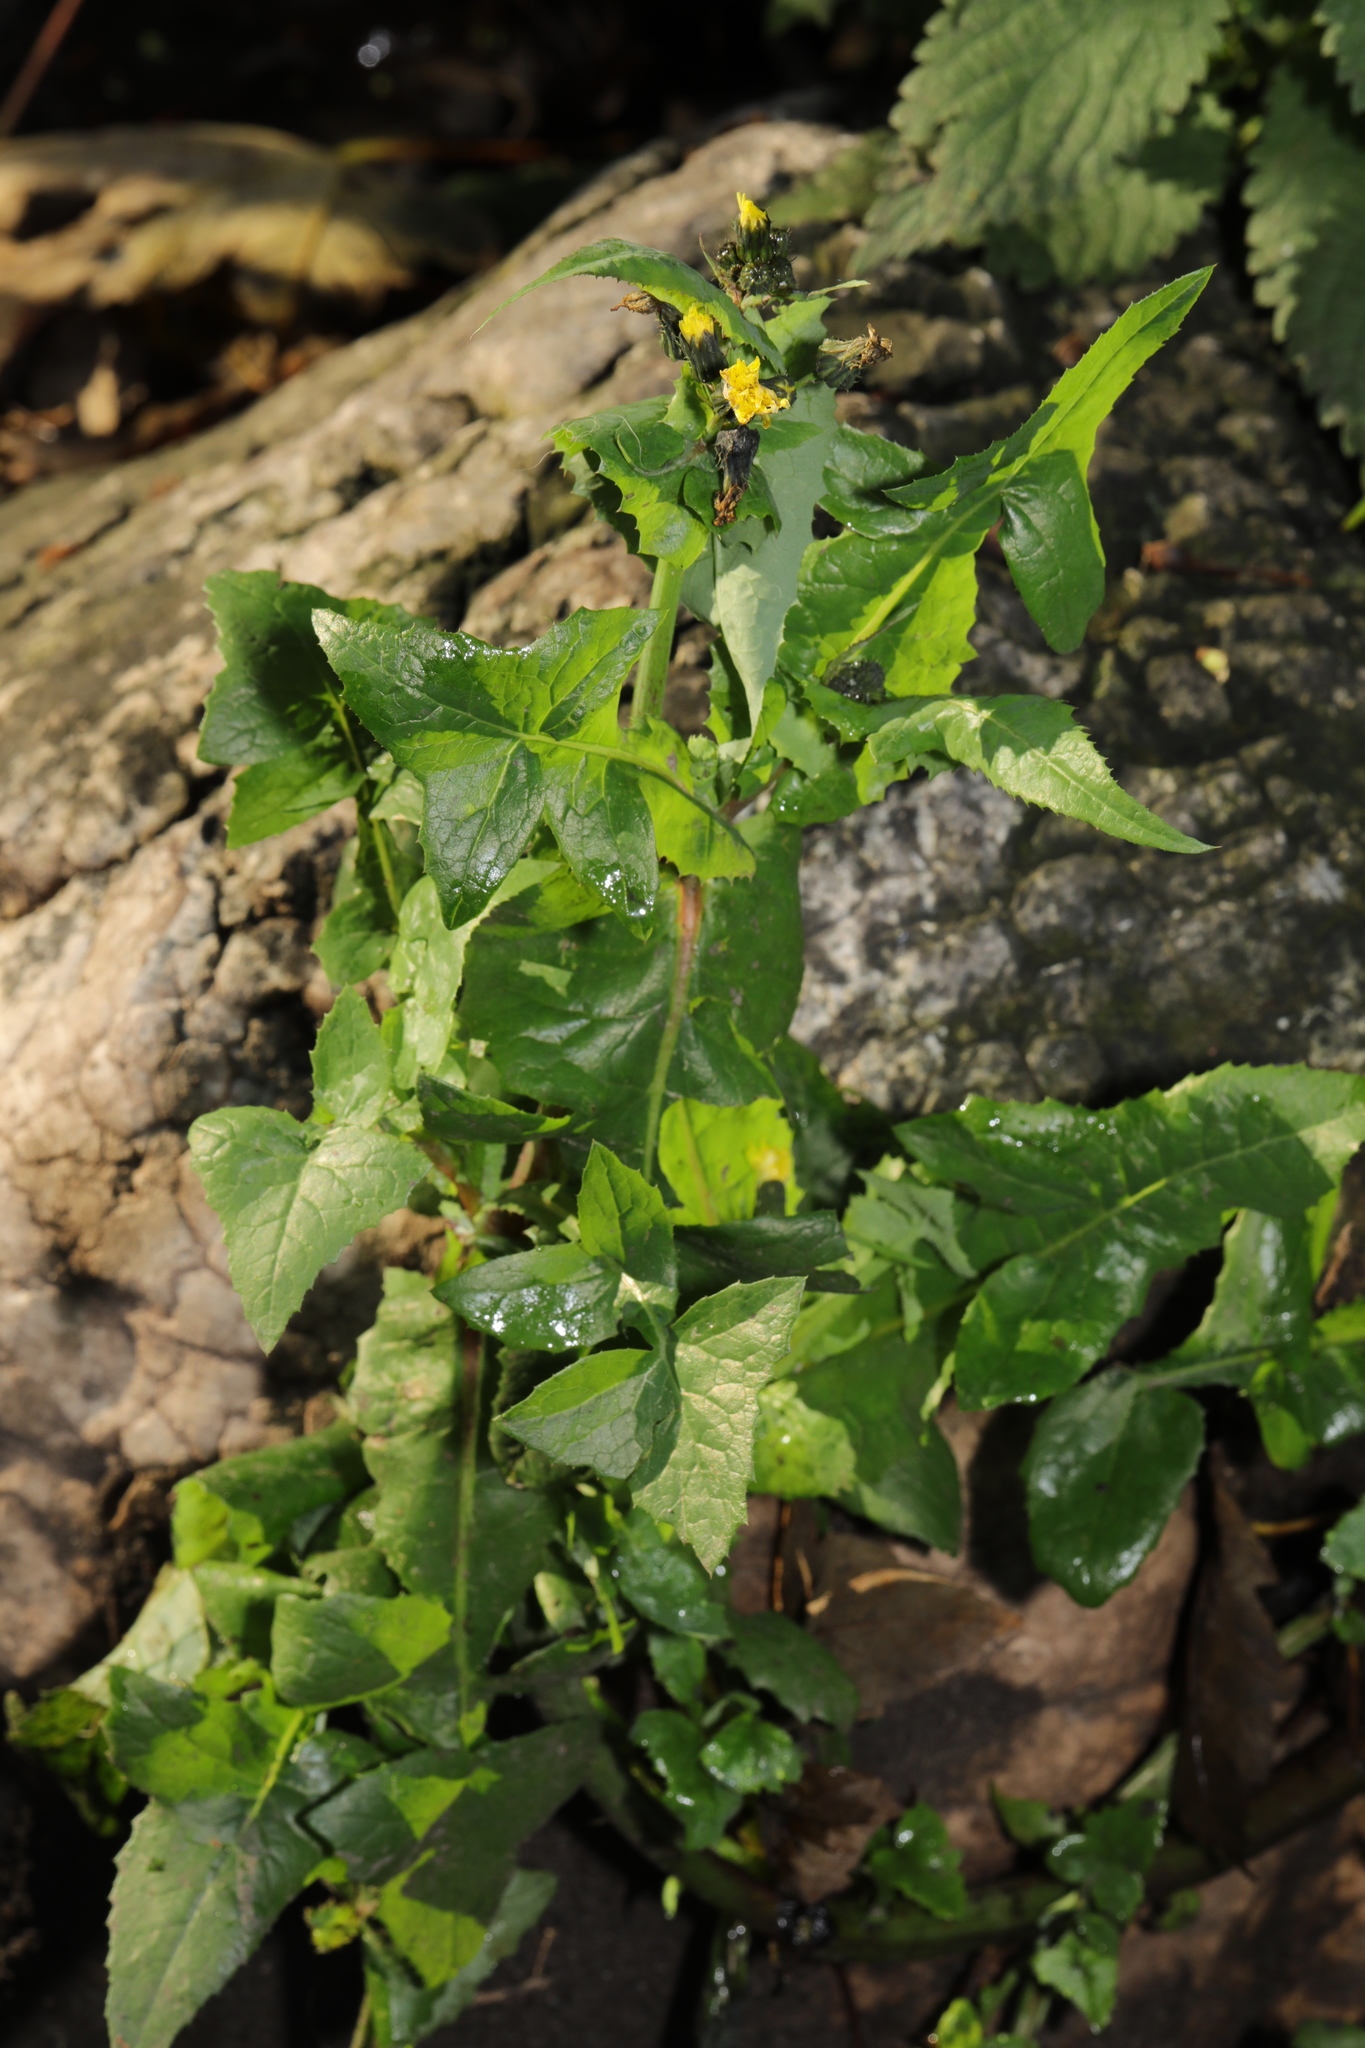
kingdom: Plantae
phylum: Tracheophyta
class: Magnoliopsida
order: Asterales
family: Asteraceae
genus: Sonchus
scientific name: Sonchus oleraceus
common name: Common sowthistle
